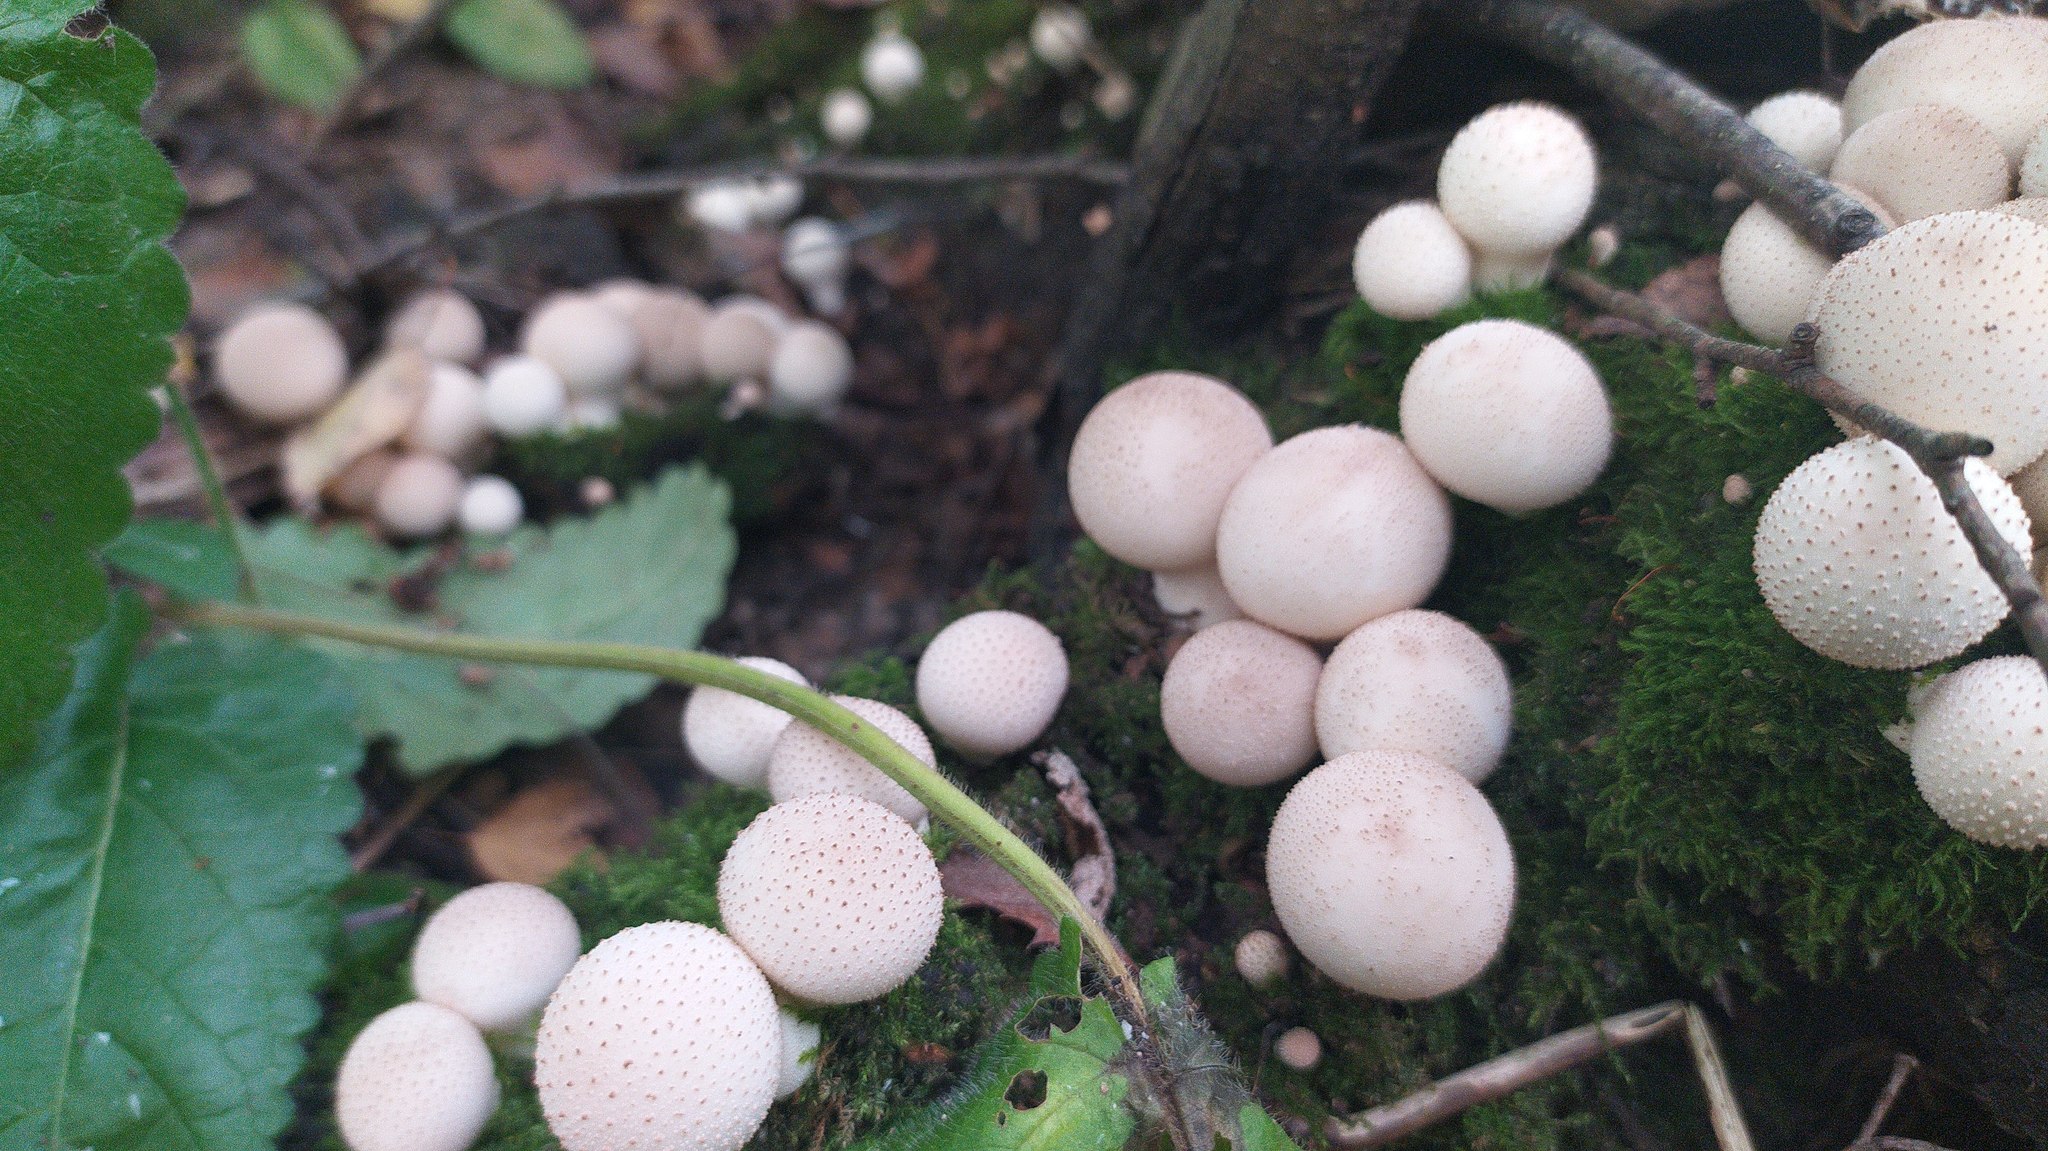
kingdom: Fungi
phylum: Basidiomycota
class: Agaricomycetes
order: Agaricales
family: Lycoperdaceae
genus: Apioperdon
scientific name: Apioperdon pyriforme
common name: Pear-shaped puffball
